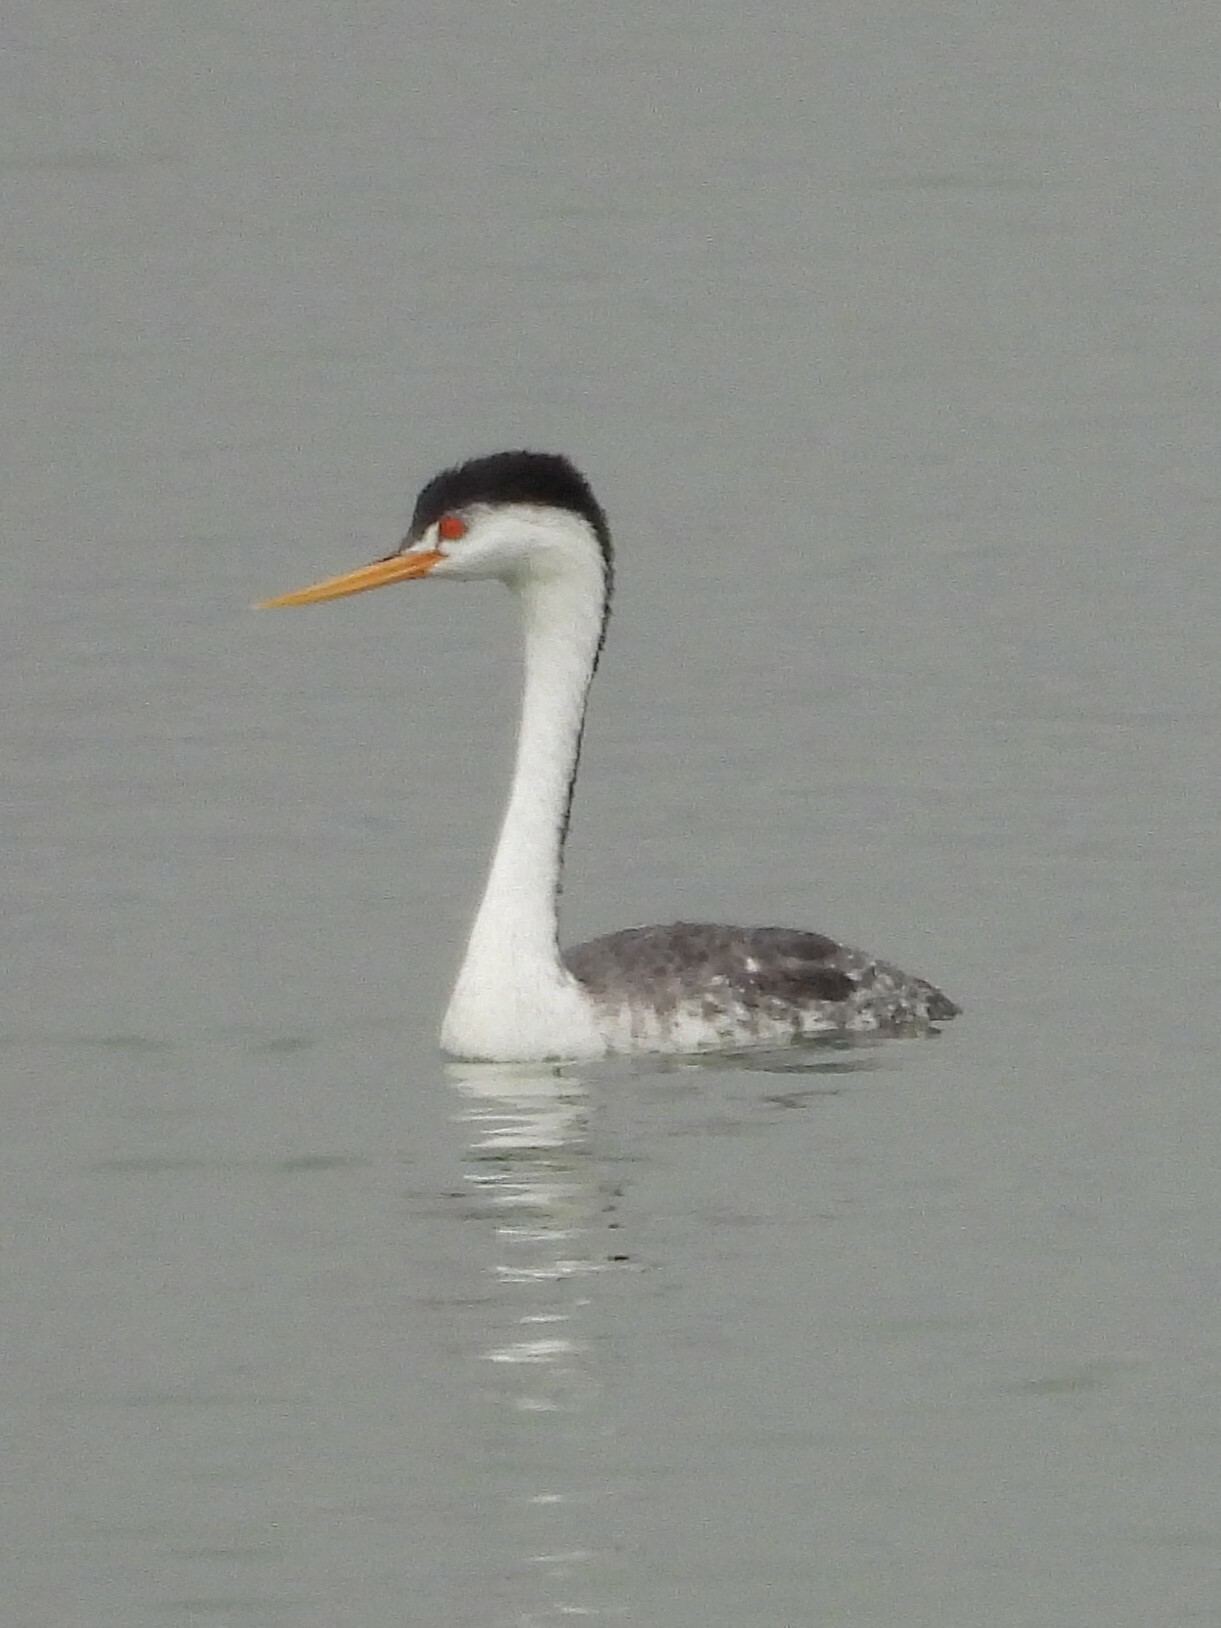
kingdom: Animalia
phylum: Chordata
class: Aves
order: Podicipediformes
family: Podicipedidae
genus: Aechmophorus
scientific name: Aechmophorus clarkii
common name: Clark's grebe
